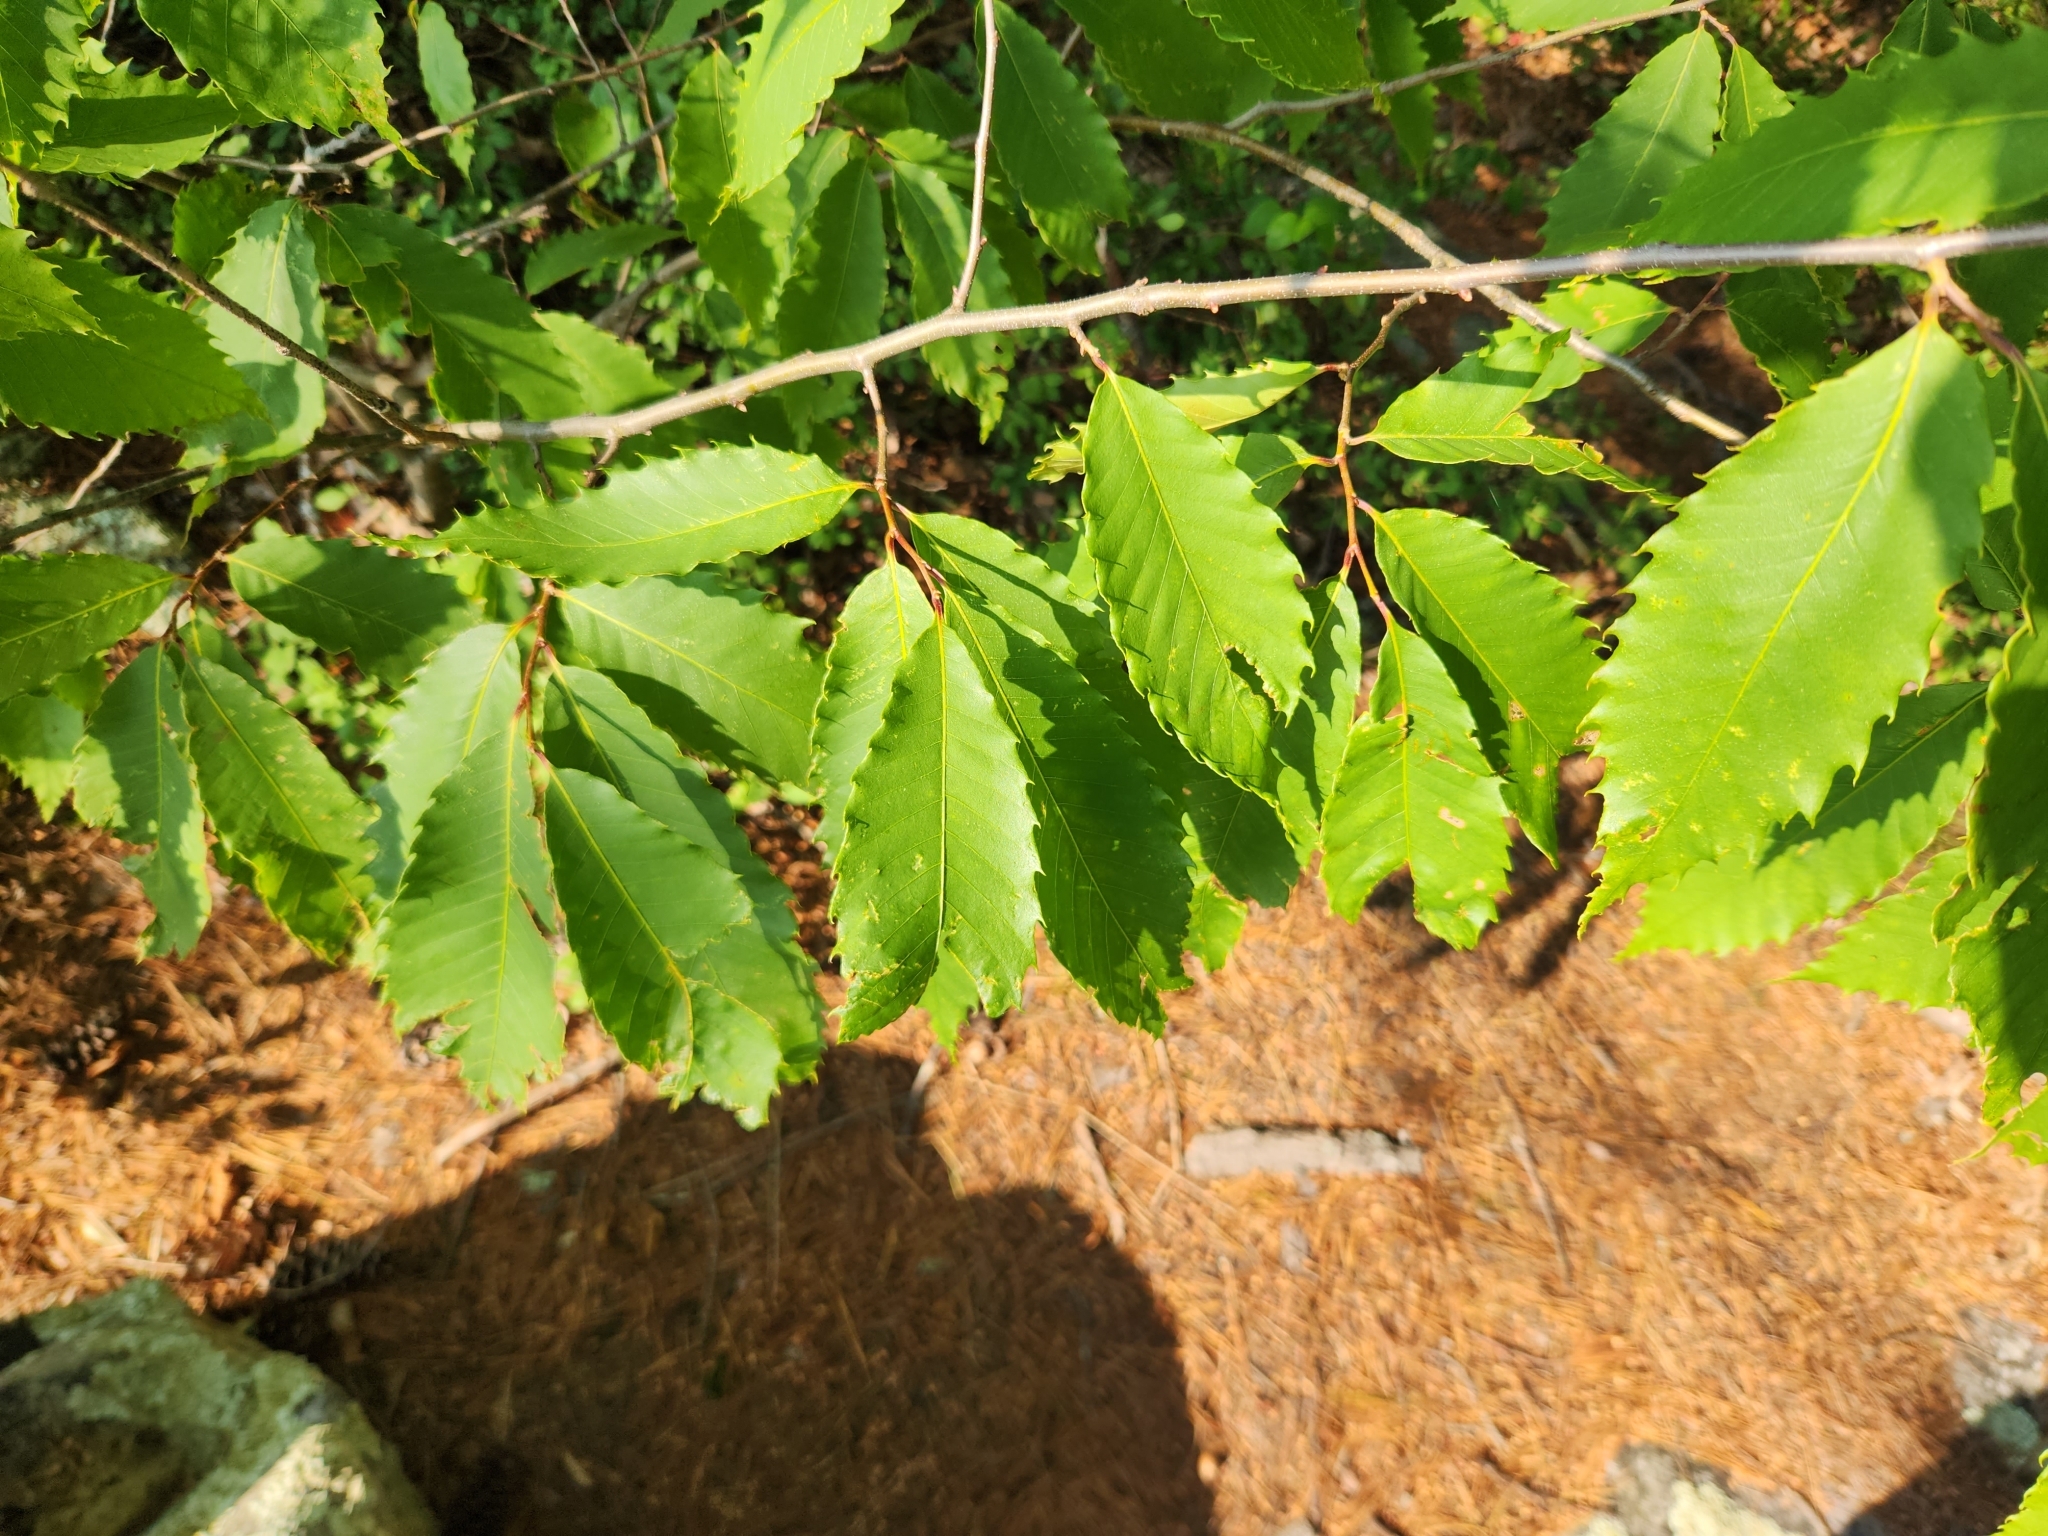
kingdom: Plantae
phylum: Tracheophyta
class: Magnoliopsida
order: Fagales
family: Fagaceae
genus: Castanea
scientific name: Castanea dentata
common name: American chestnut
